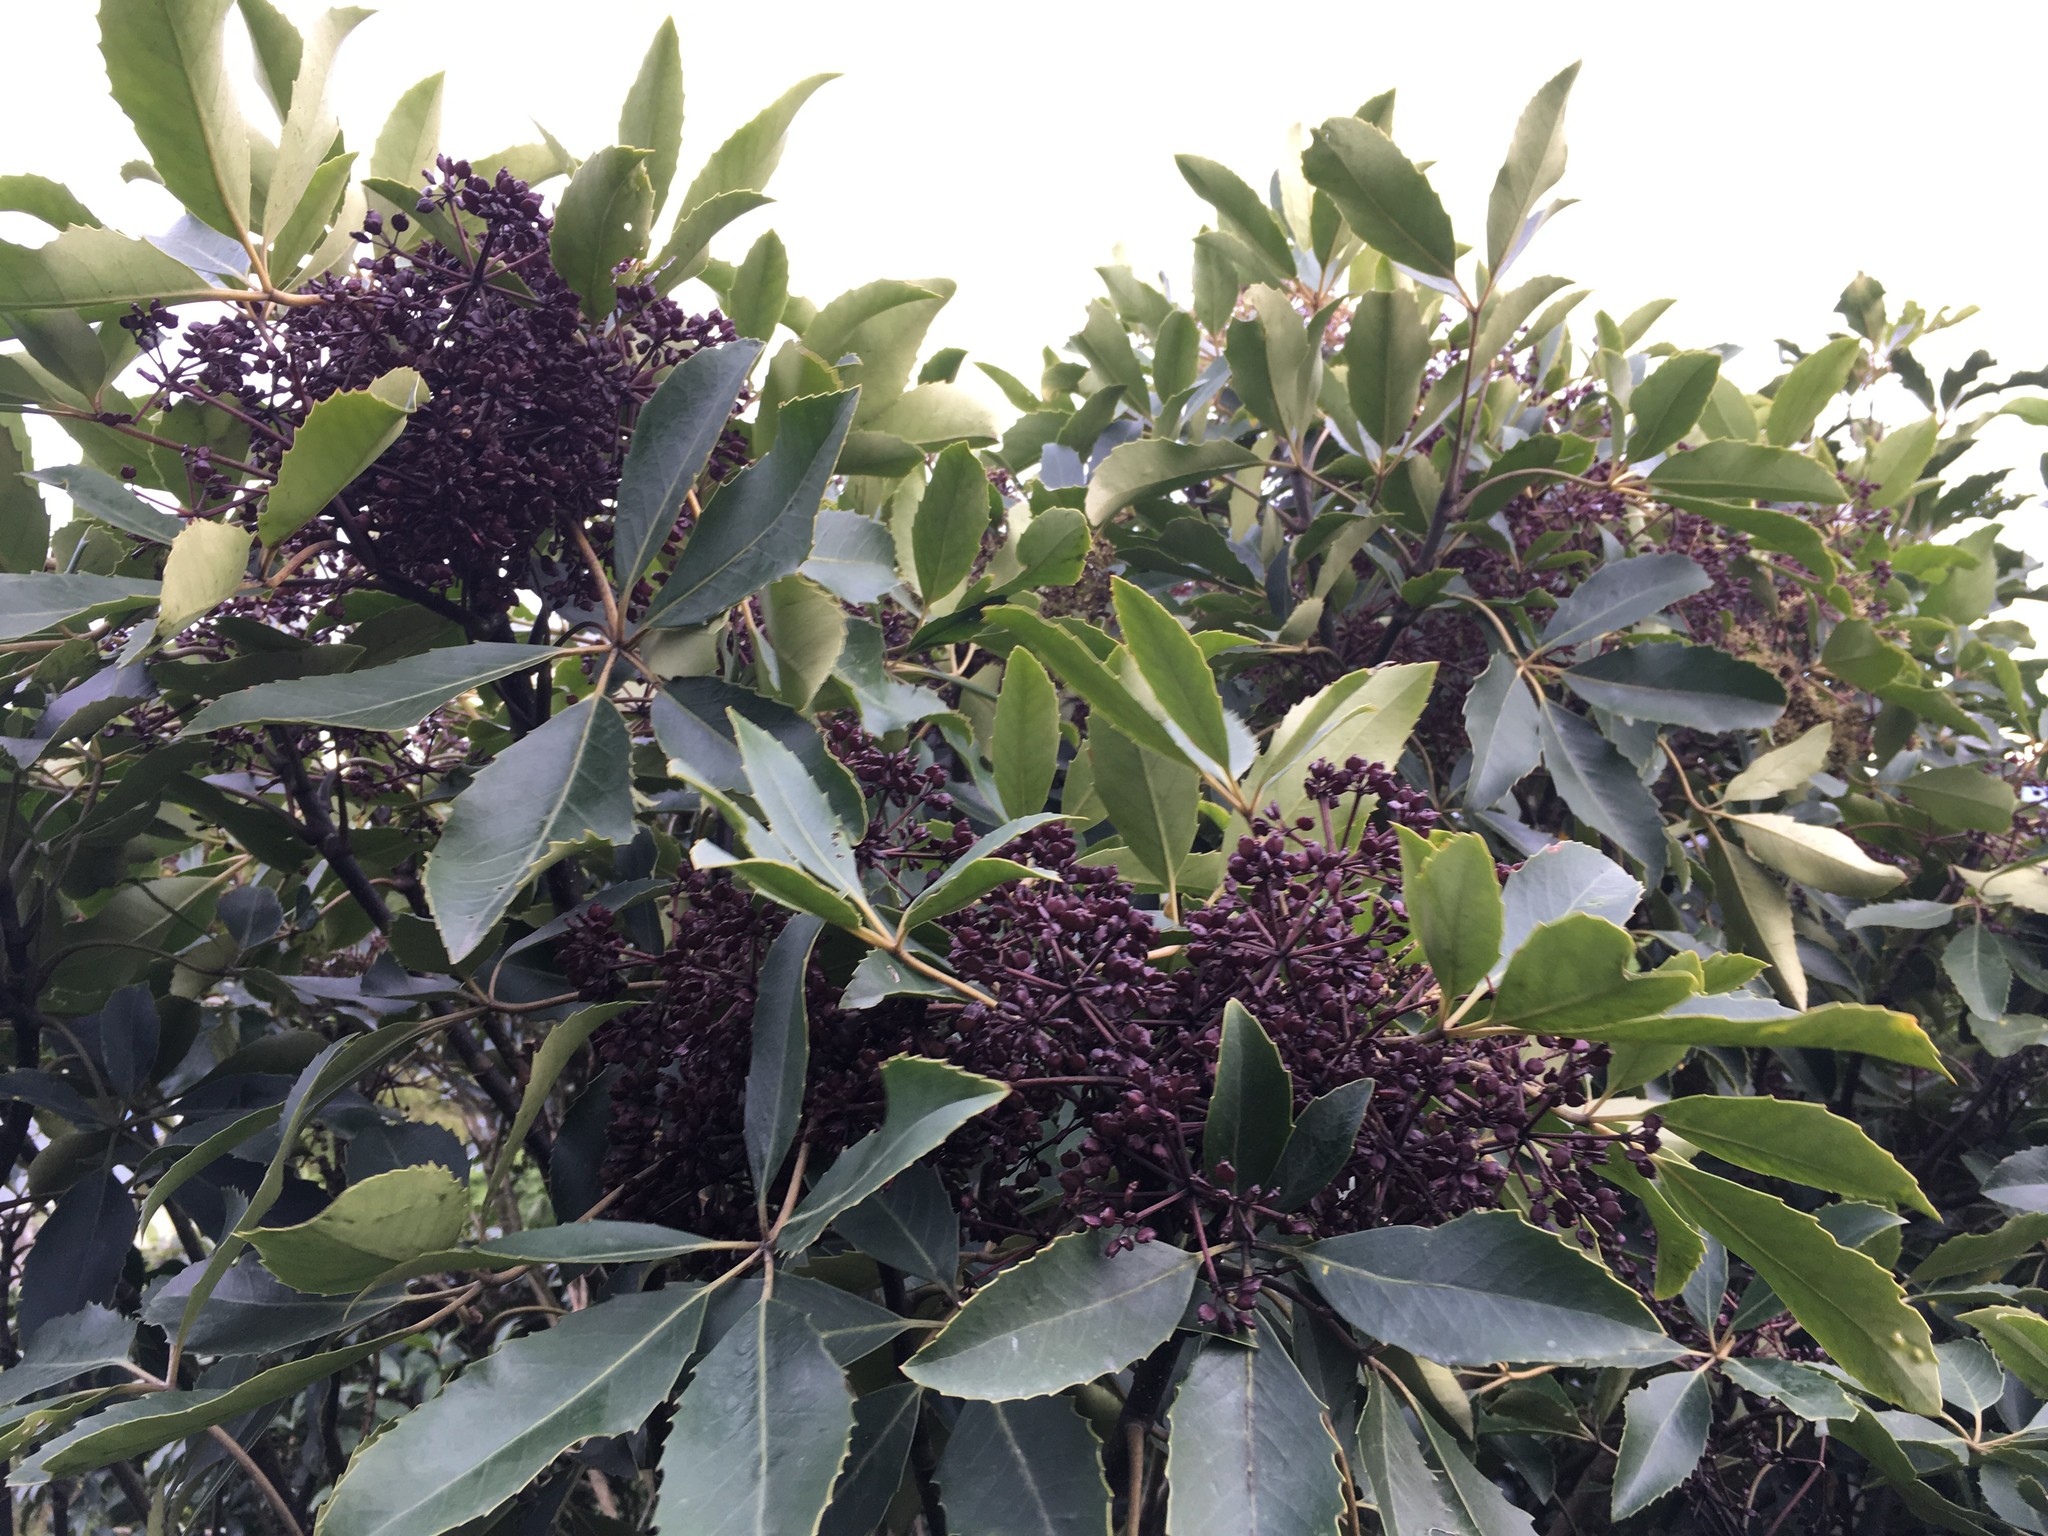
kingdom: Plantae
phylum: Tracheophyta
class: Magnoliopsida
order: Apiales
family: Araliaceae
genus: Neopanax
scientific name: Neopanax arboreus
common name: Five-fingers
